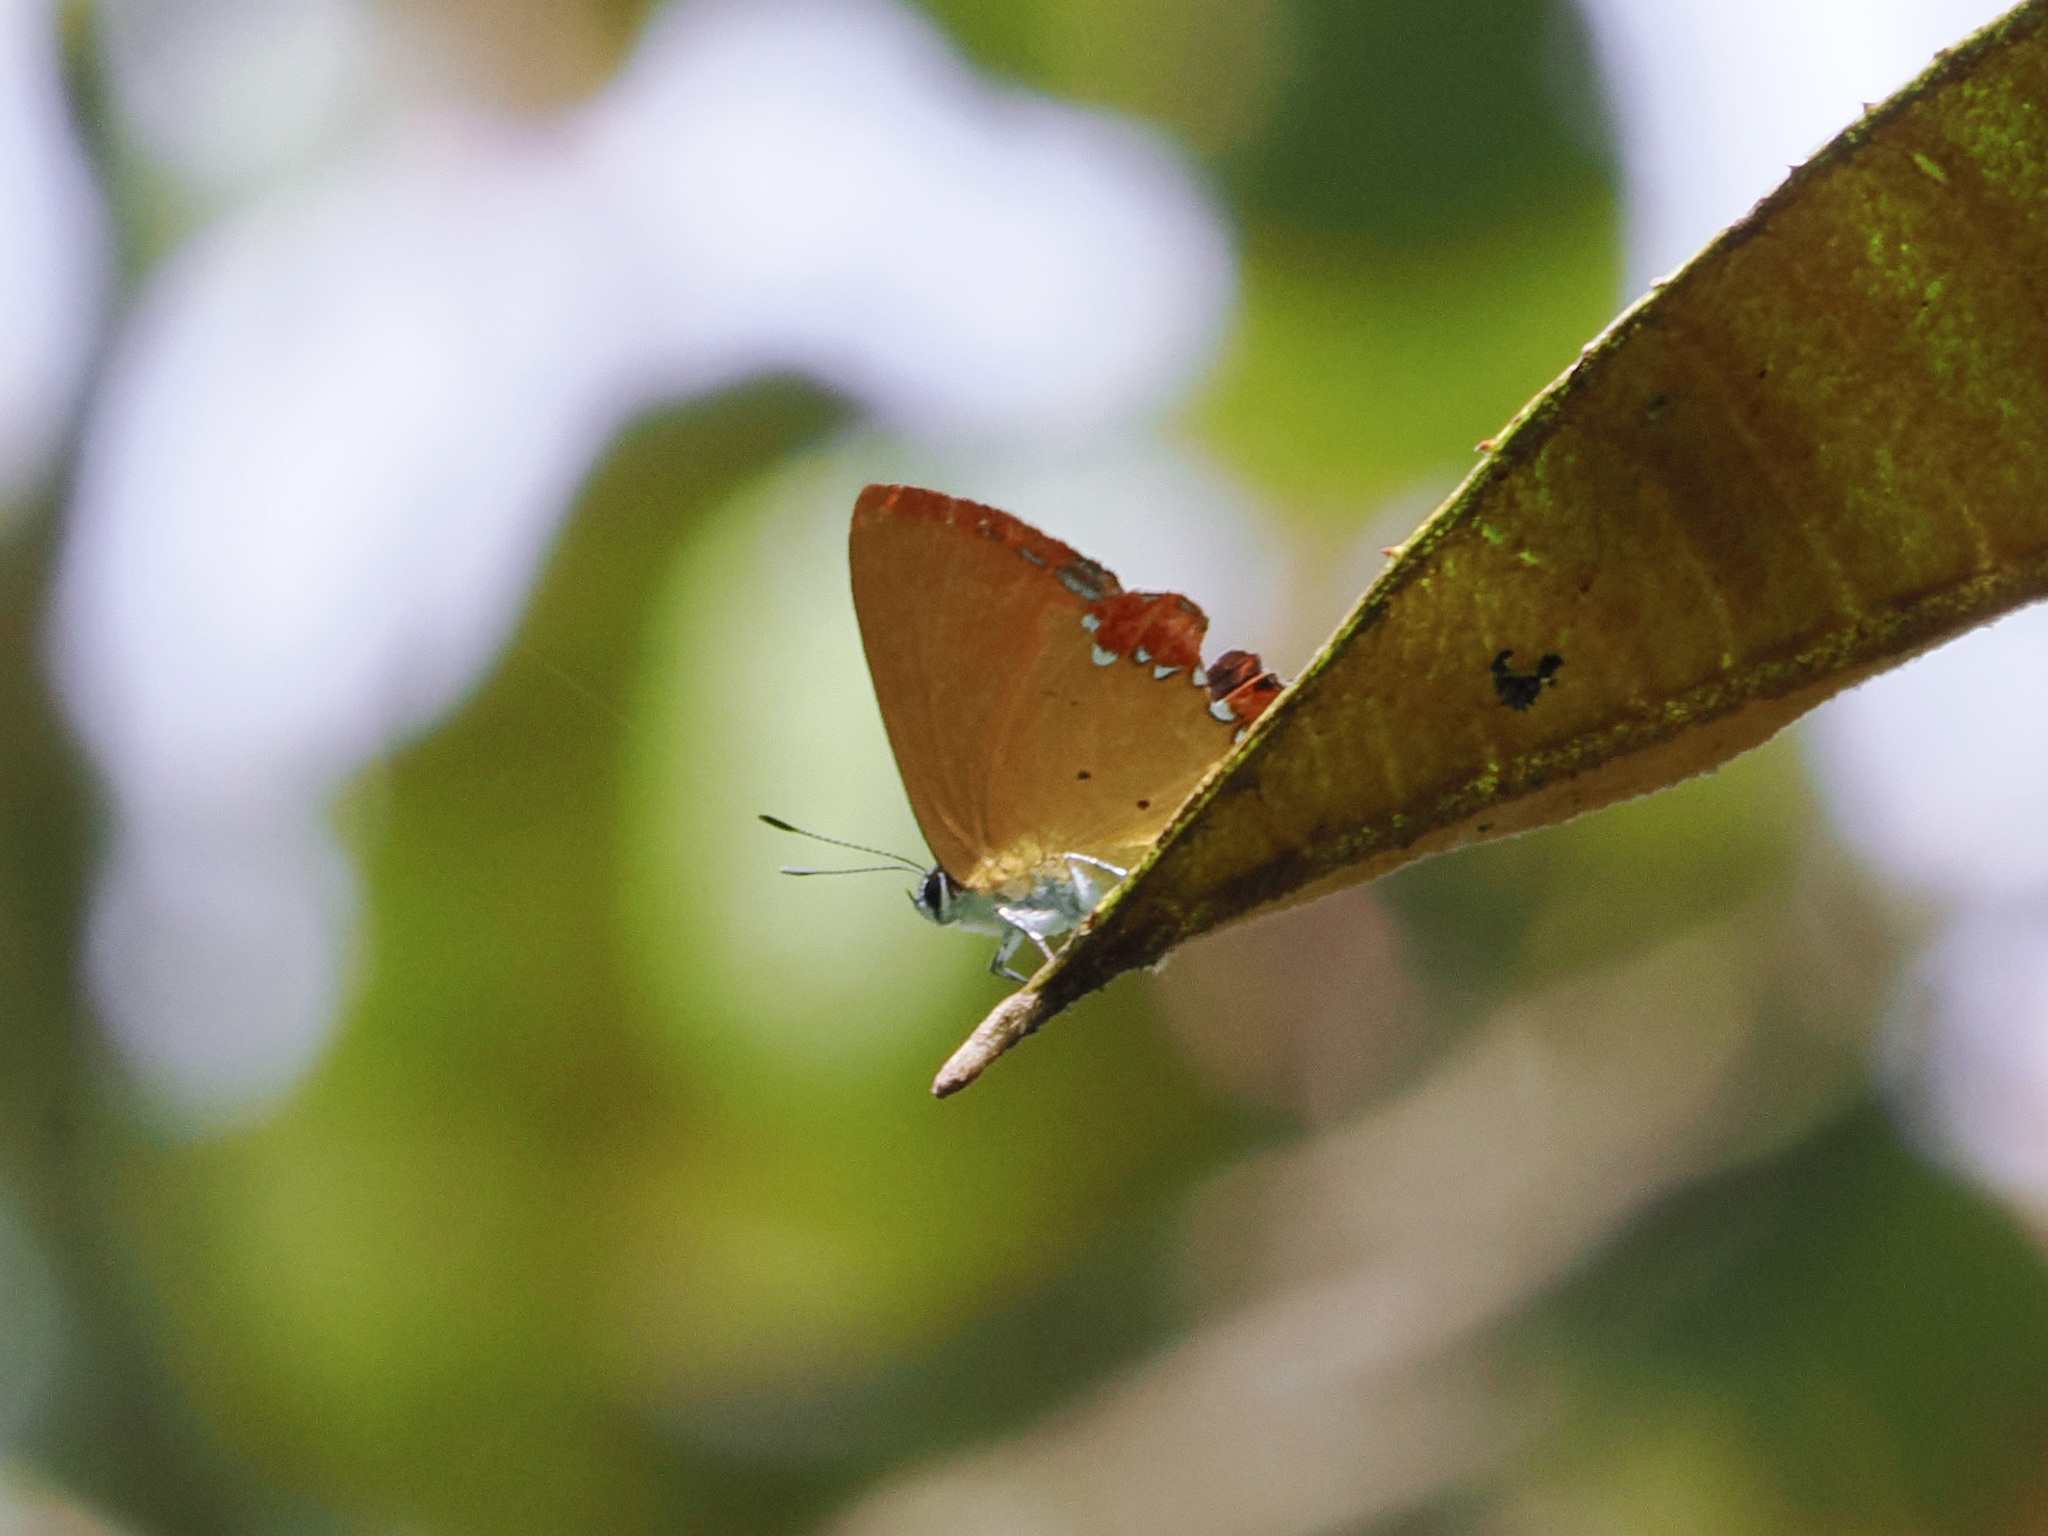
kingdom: Animalia
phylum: Arthropoda
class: Insecta
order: Lepidoptera
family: Lycaenidae
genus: Heliophorus
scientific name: Heliophorus ila
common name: Restricted purple sapphire
